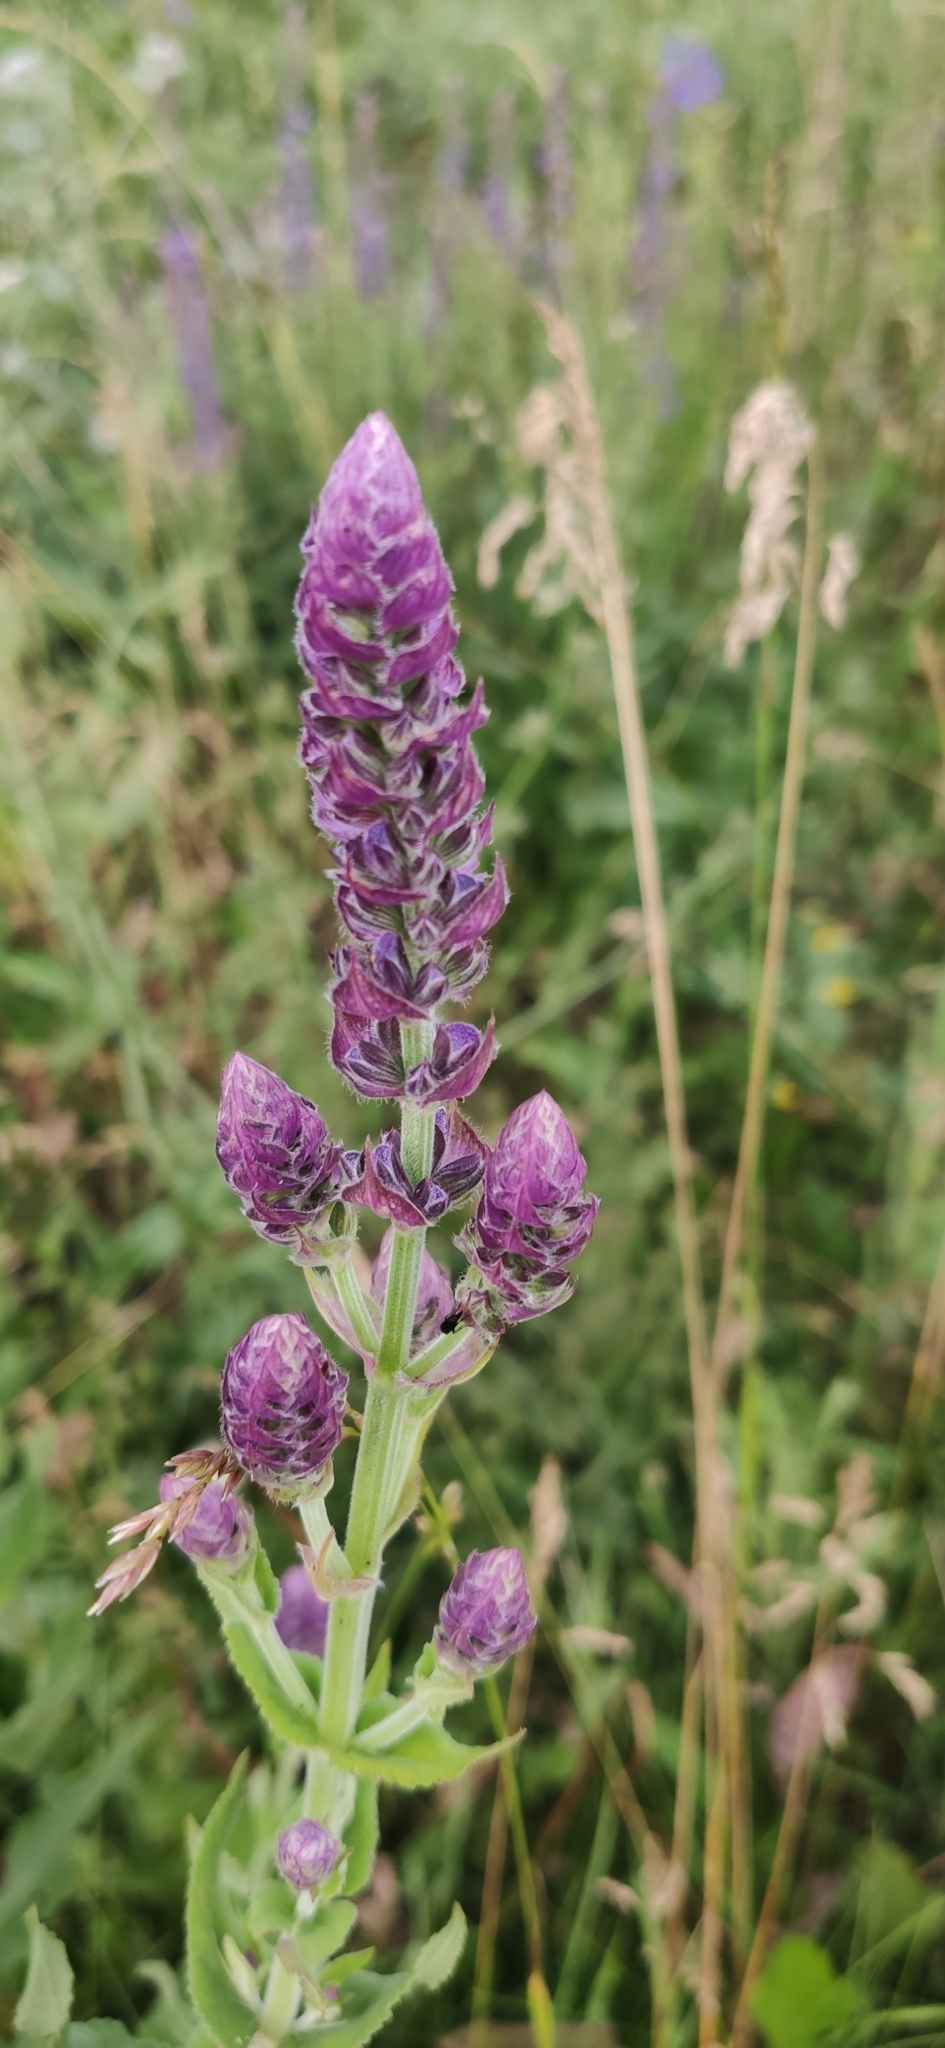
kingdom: Plantae
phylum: Tracheophyta
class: Magnoliopsida
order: Lamiales
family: Lamiaceae
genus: Salvia
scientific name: Salvia nemorosa
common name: Balkan clary
